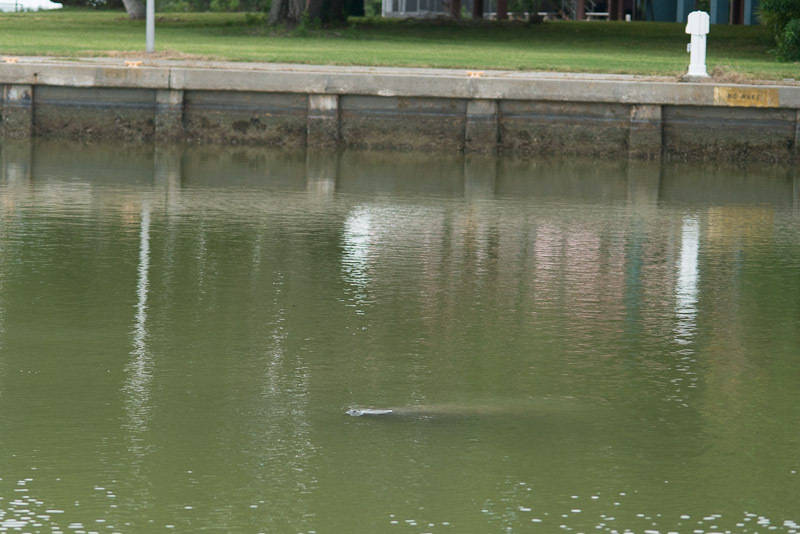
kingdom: Animalia
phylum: Chordata
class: Mammalia
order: Sirenia
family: Trichechidae
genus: Trichechus
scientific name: Trichechus manatus
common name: West indian manatee
